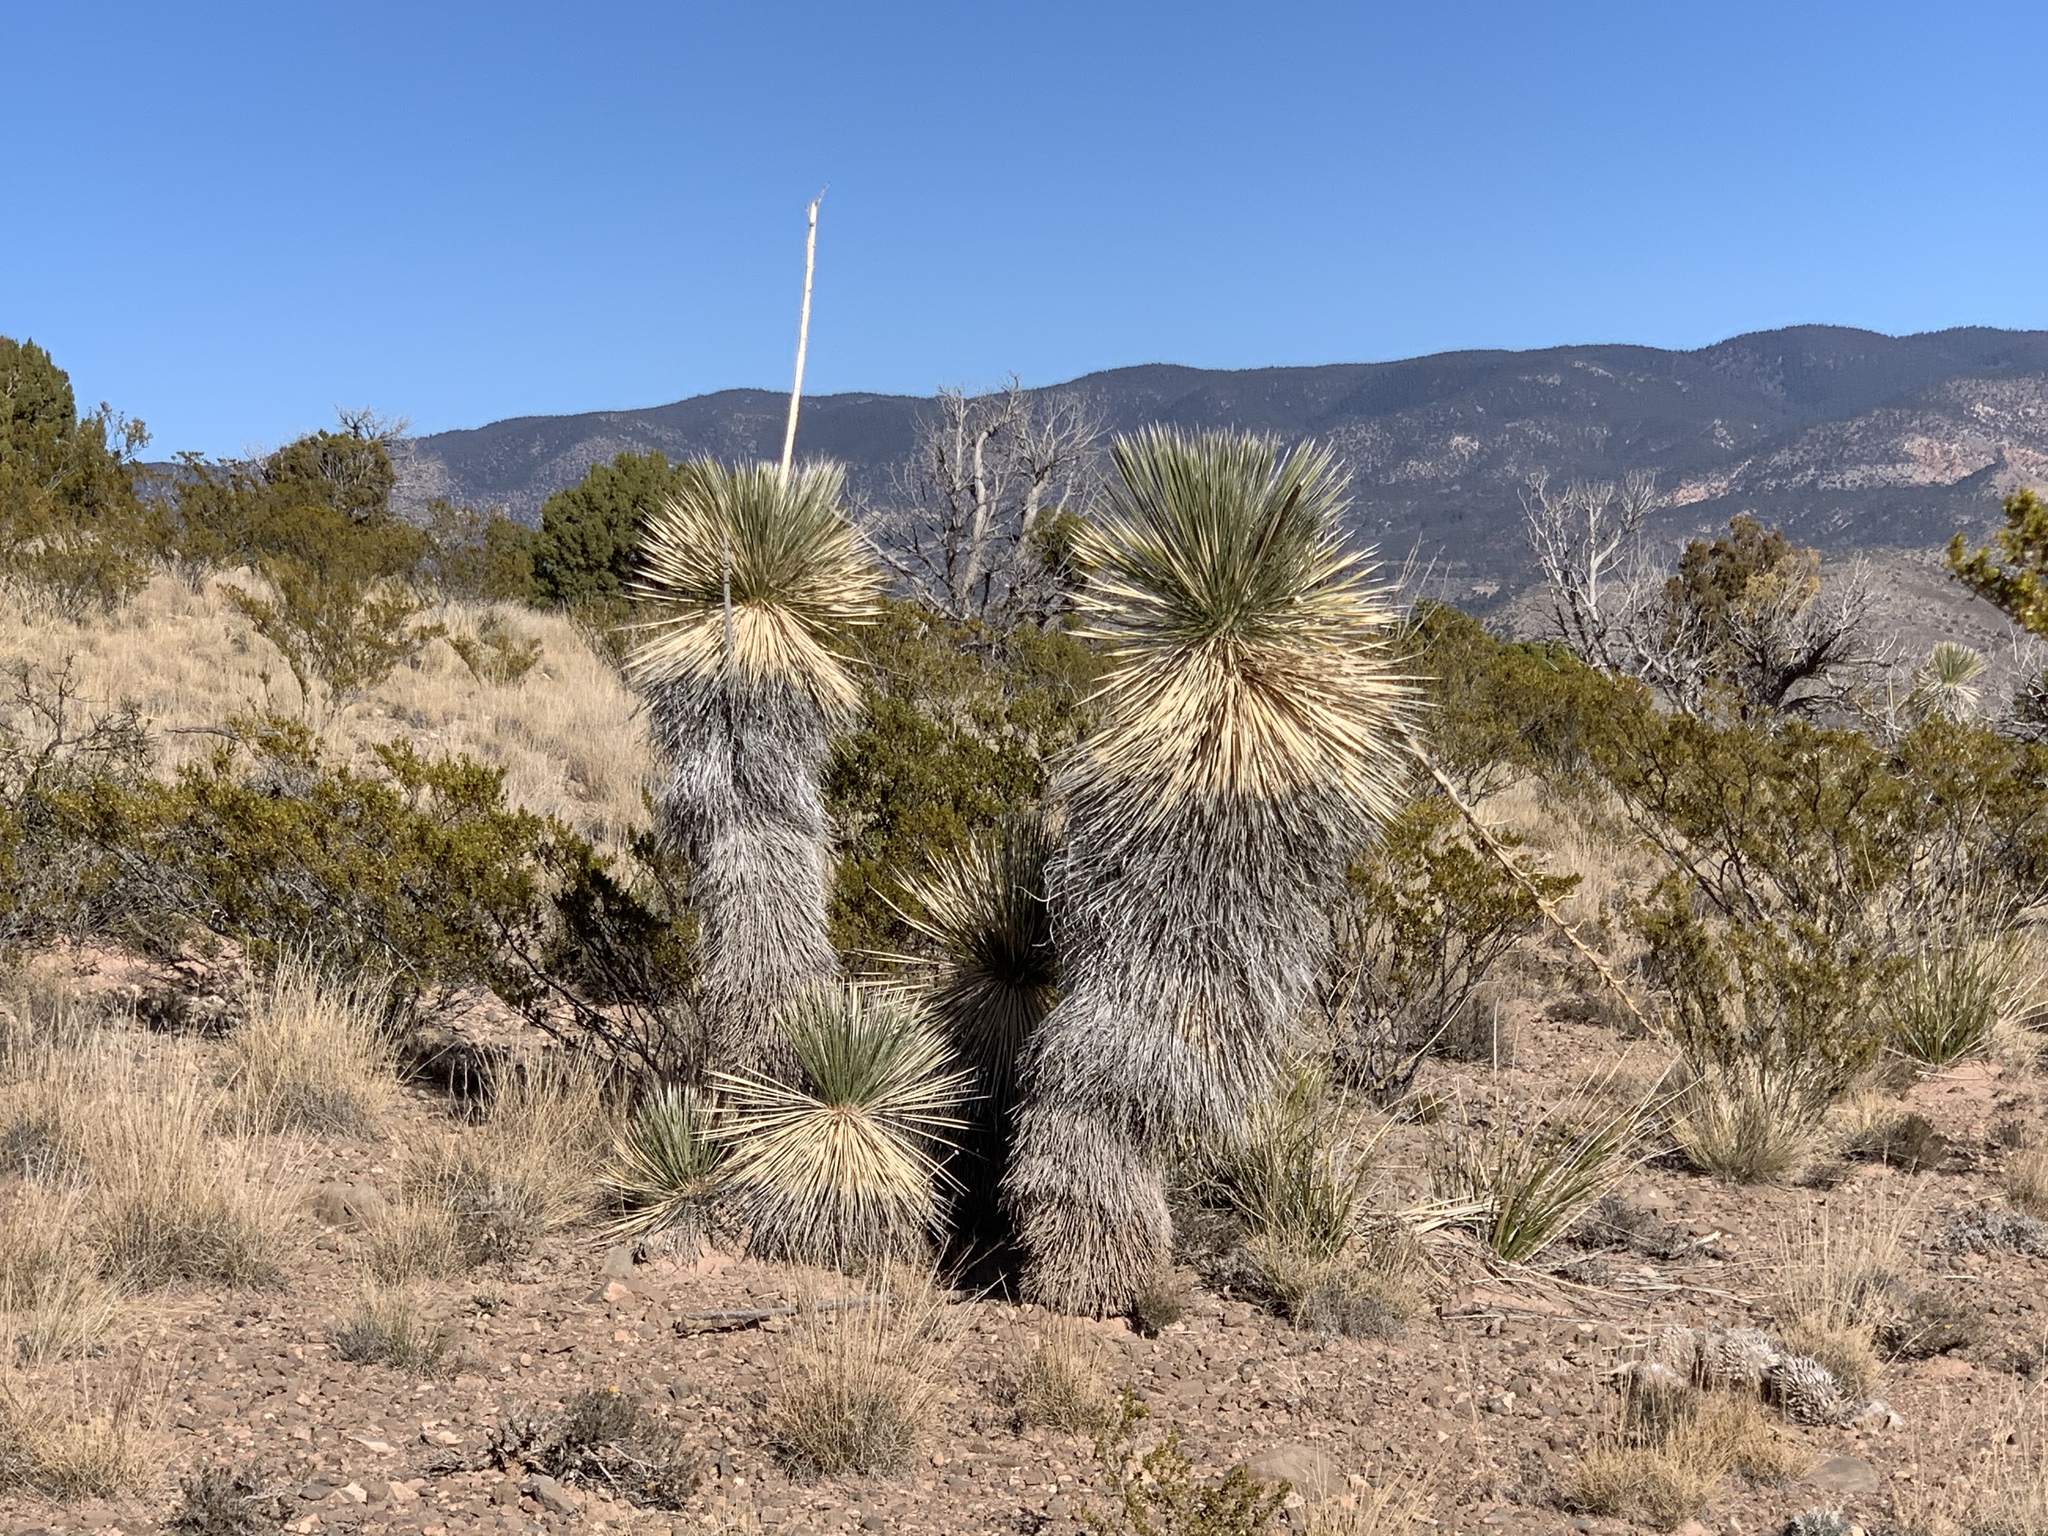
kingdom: Plantae
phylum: Tracheophyta
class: Liliopsida
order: Asparagales
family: Asparagaceae
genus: Yucca
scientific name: Yucca elata
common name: Palmella
